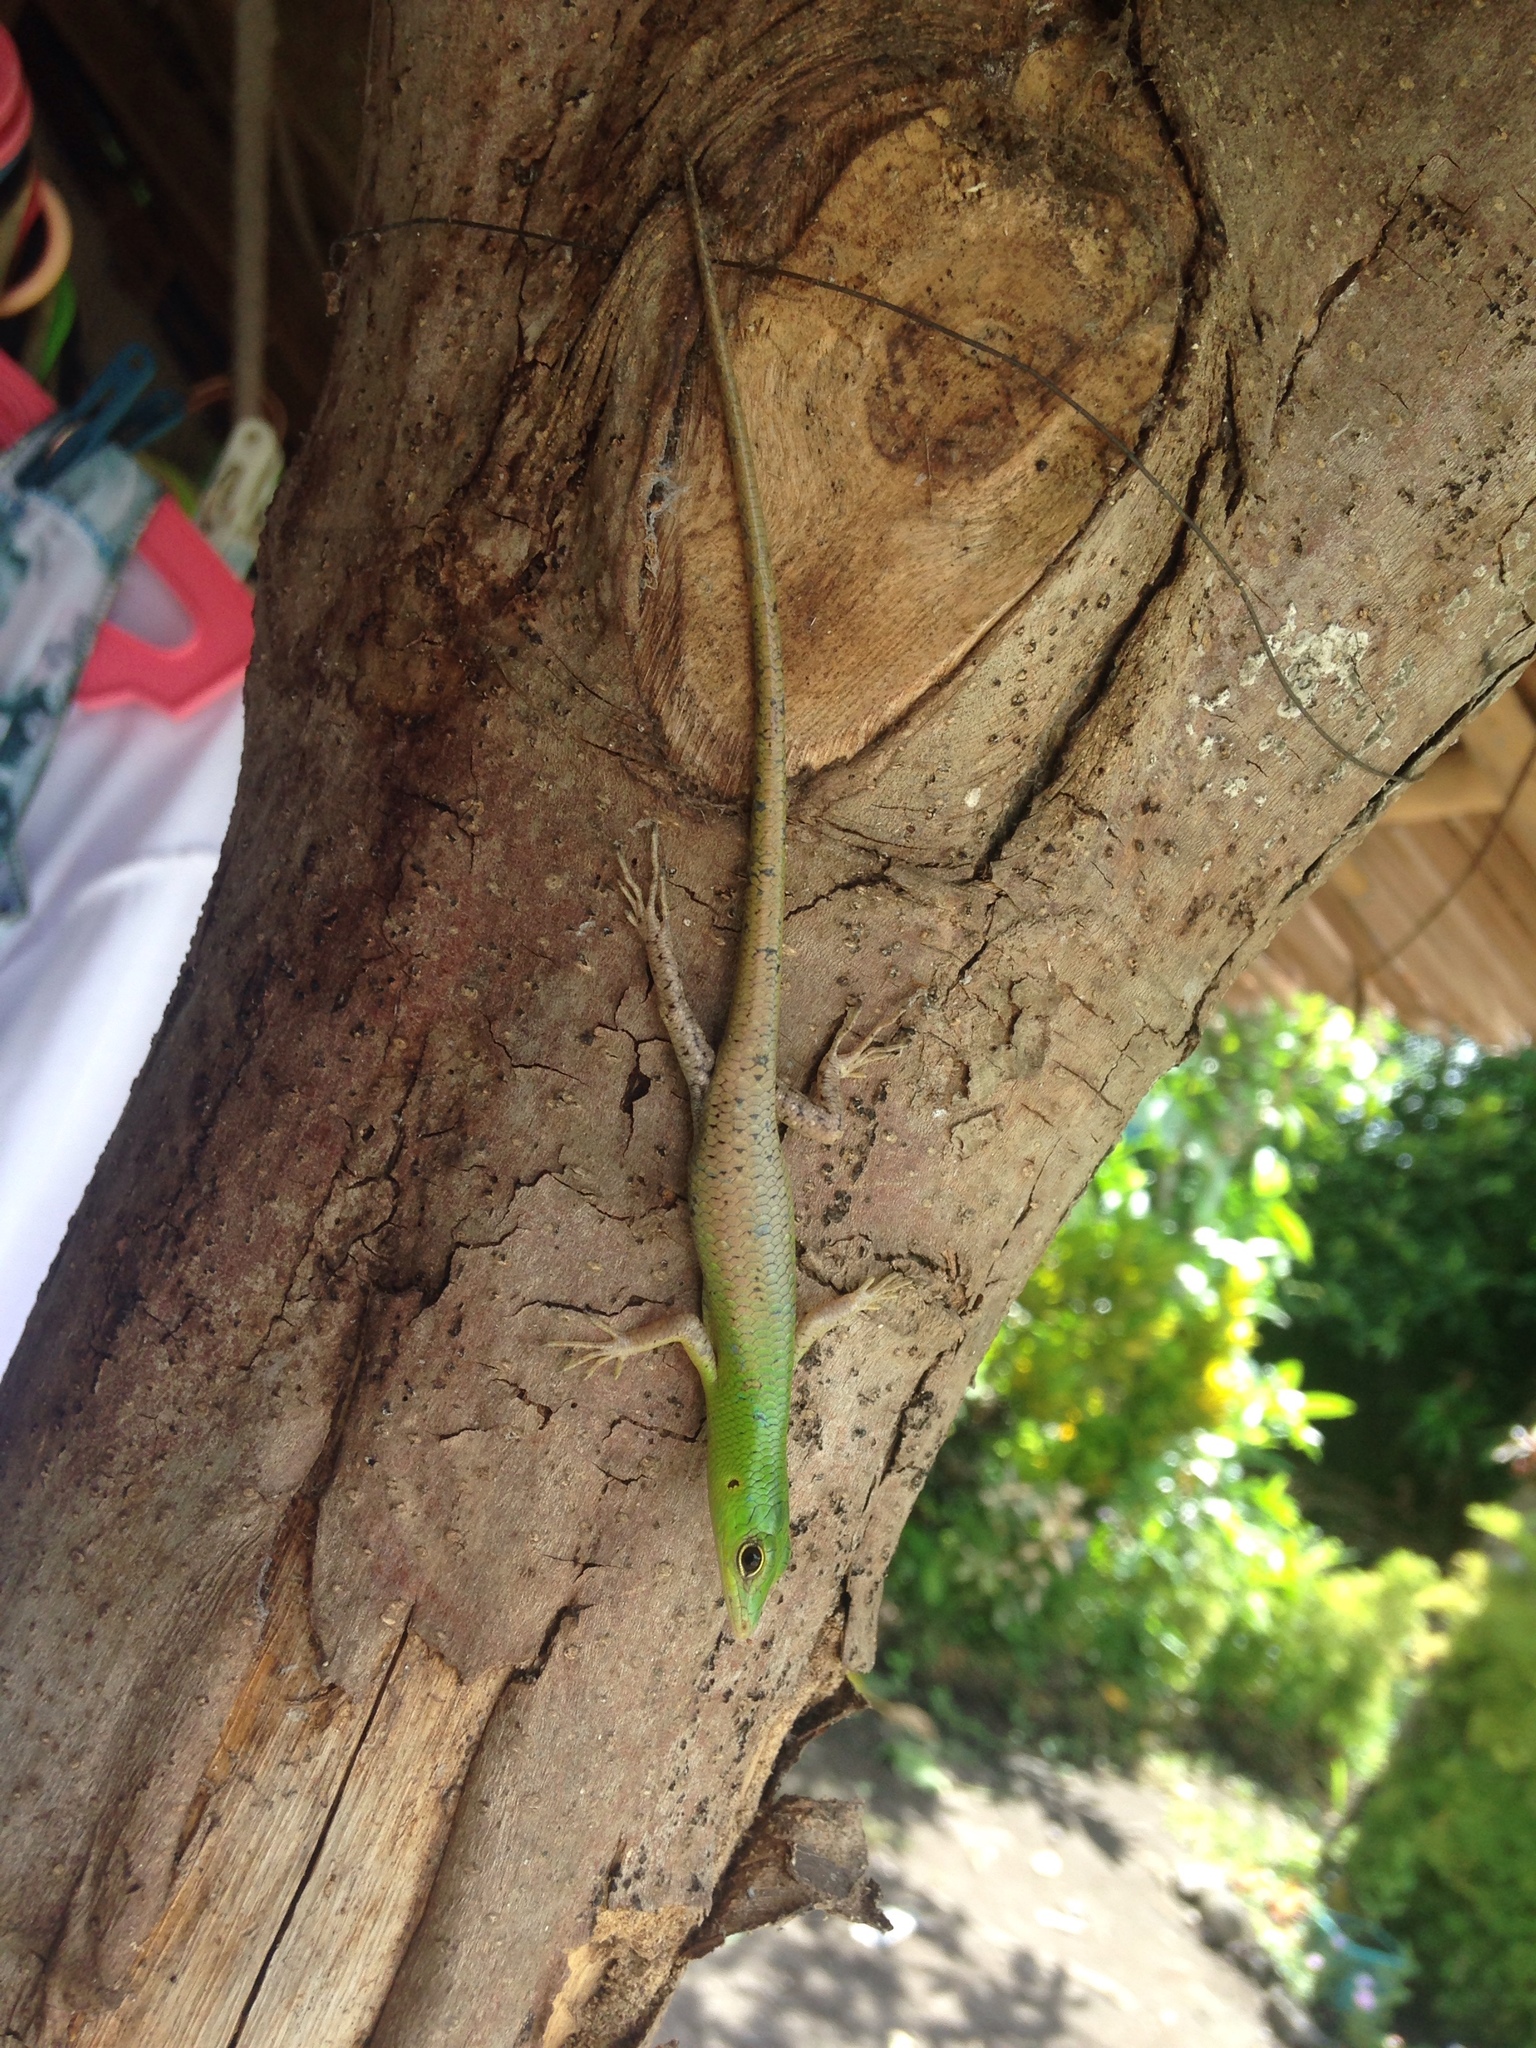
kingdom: Animalia
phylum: Chordata
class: Squamata
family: Scincidae
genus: Lamprolepis
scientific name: Lamprolepis smaragdina
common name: Emerald skink
